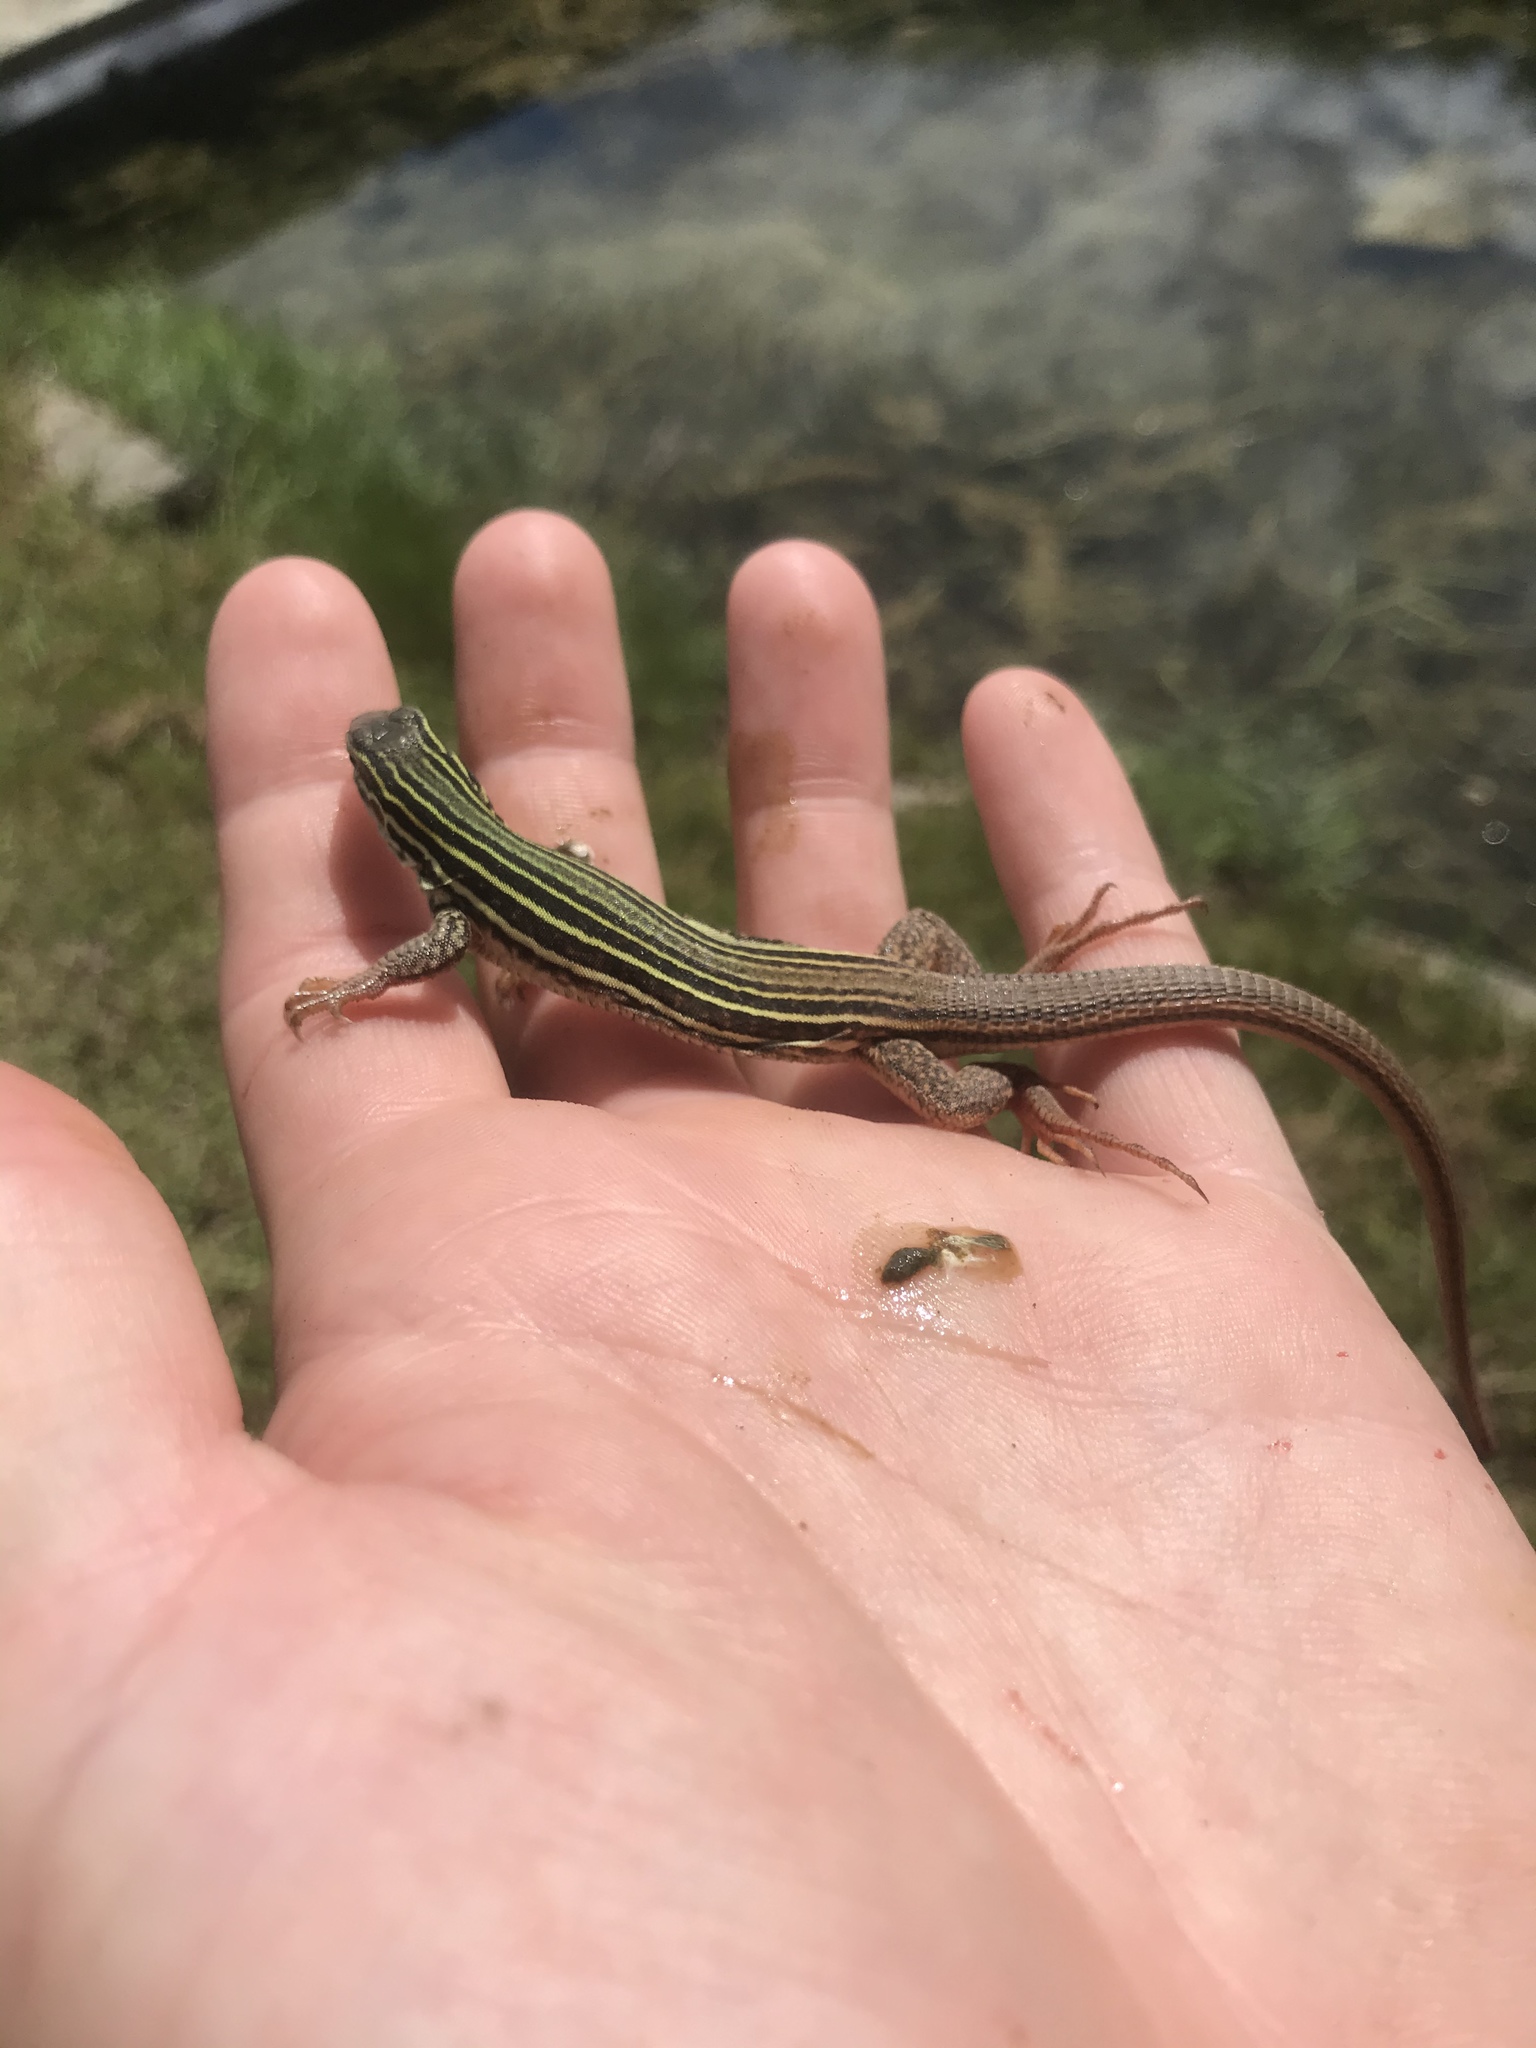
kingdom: Animalia
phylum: Chordata
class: Squamata
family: Teiidae
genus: Aspidoscelis
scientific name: Aspidoscelis gularis
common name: Eastern spotted whiptail
